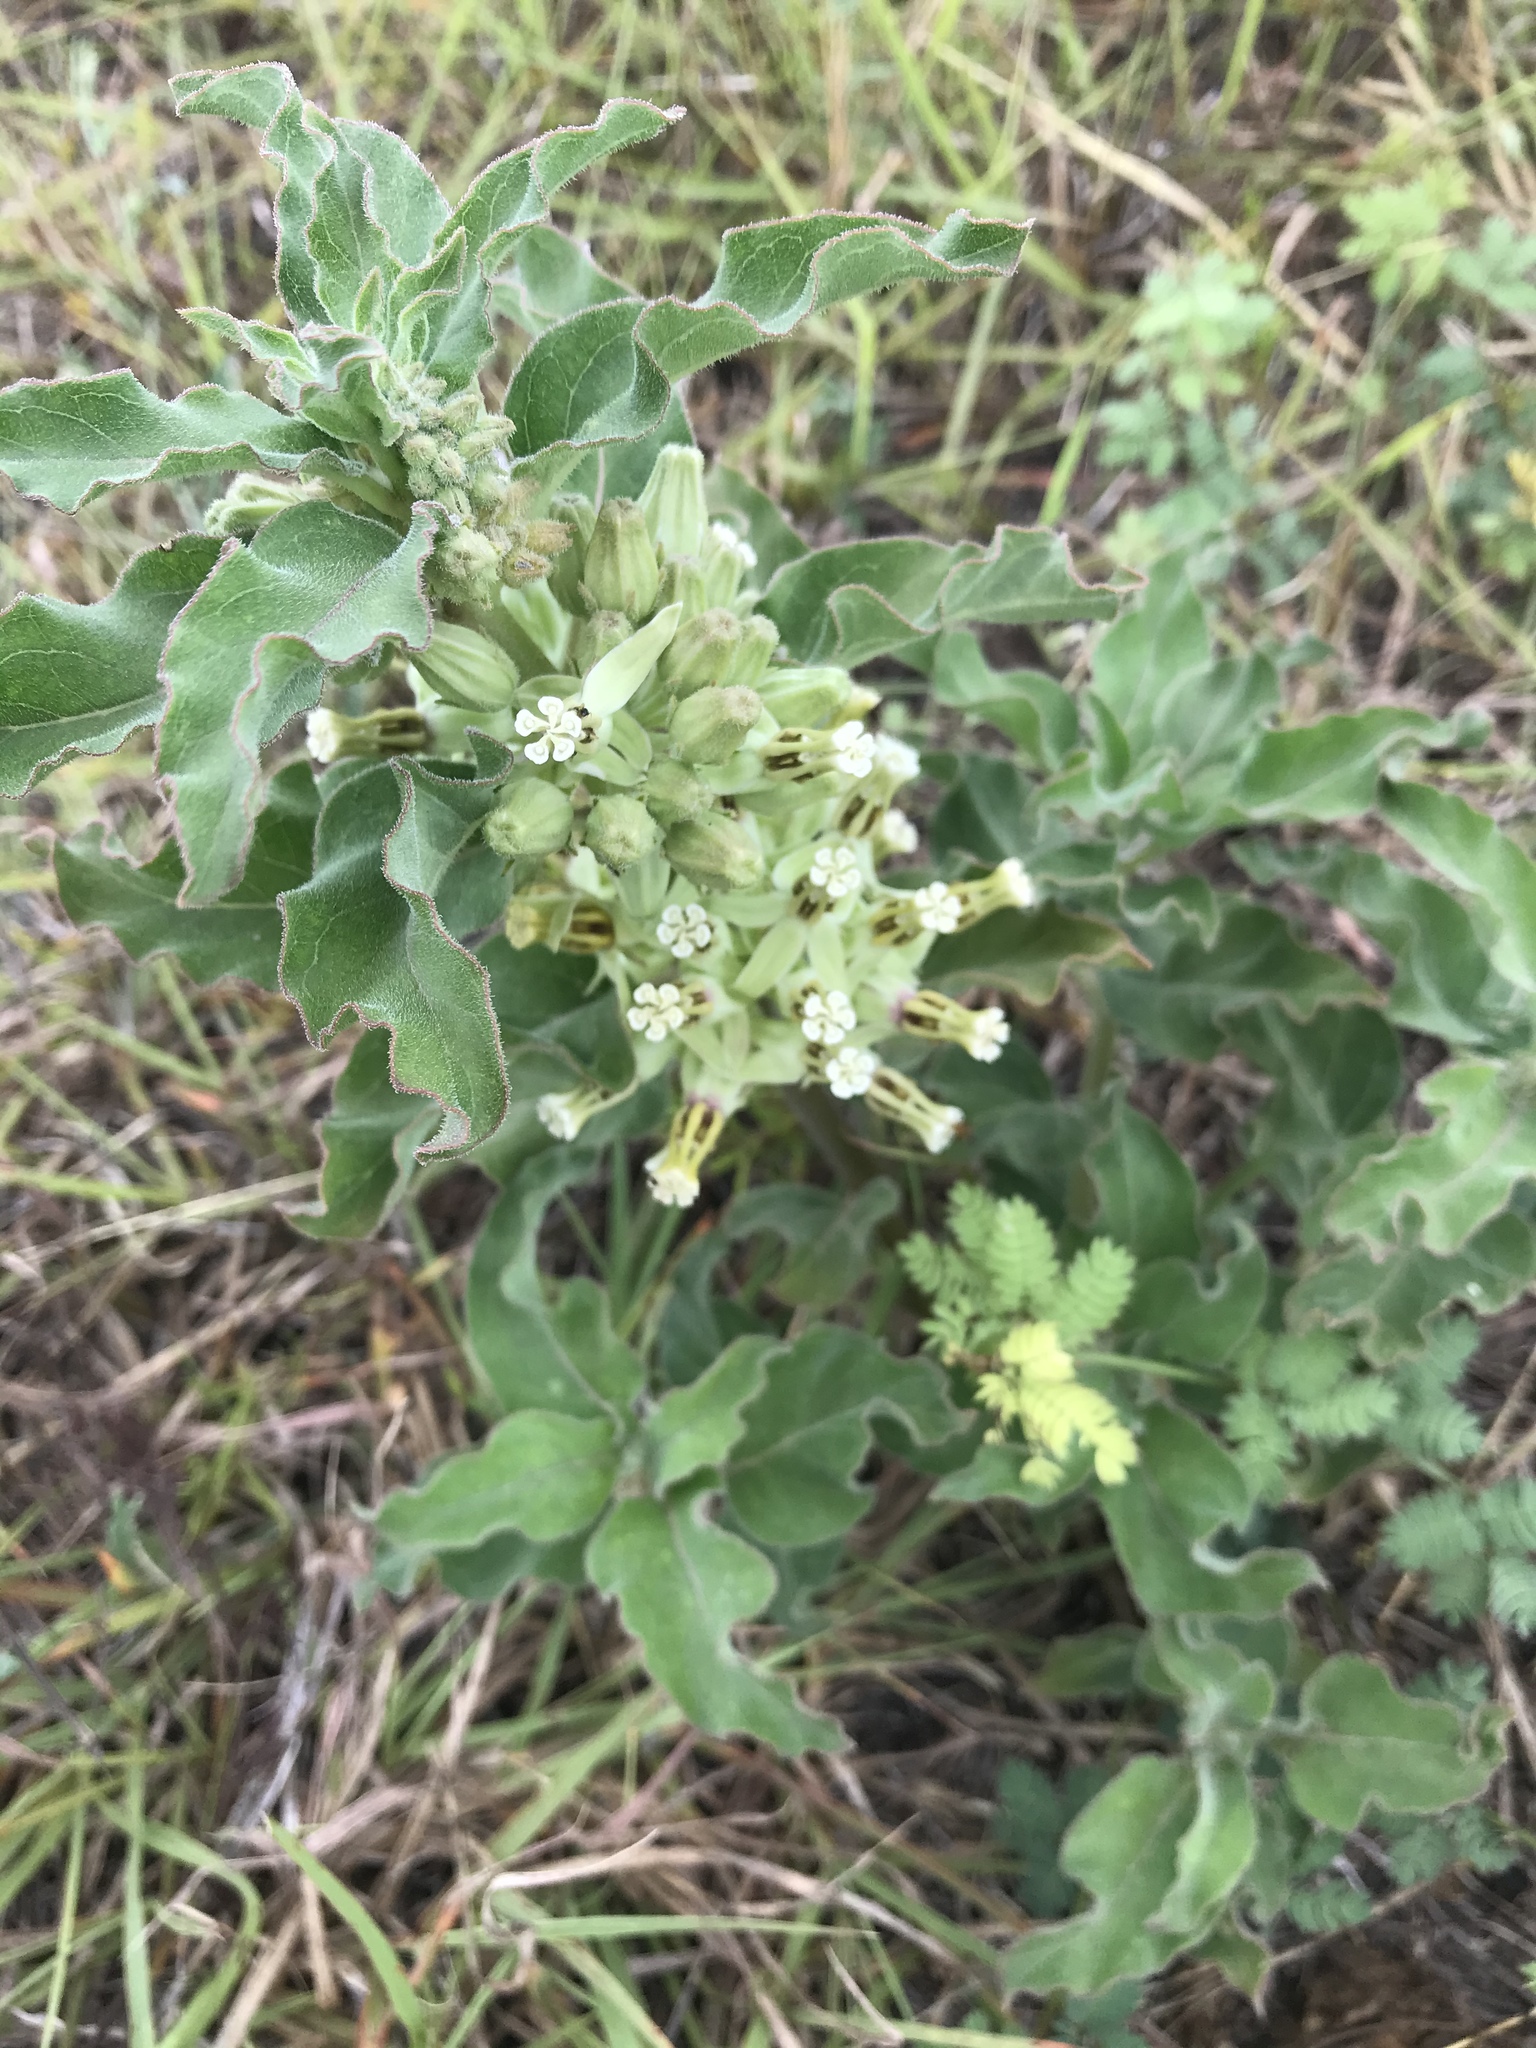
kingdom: Plantae
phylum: Tracheophyta
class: Magnoliopsida
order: Gentianales
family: Apocynaceae
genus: Asclepias
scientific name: Asclepias oenotheroides
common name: Zizotes milkweed
